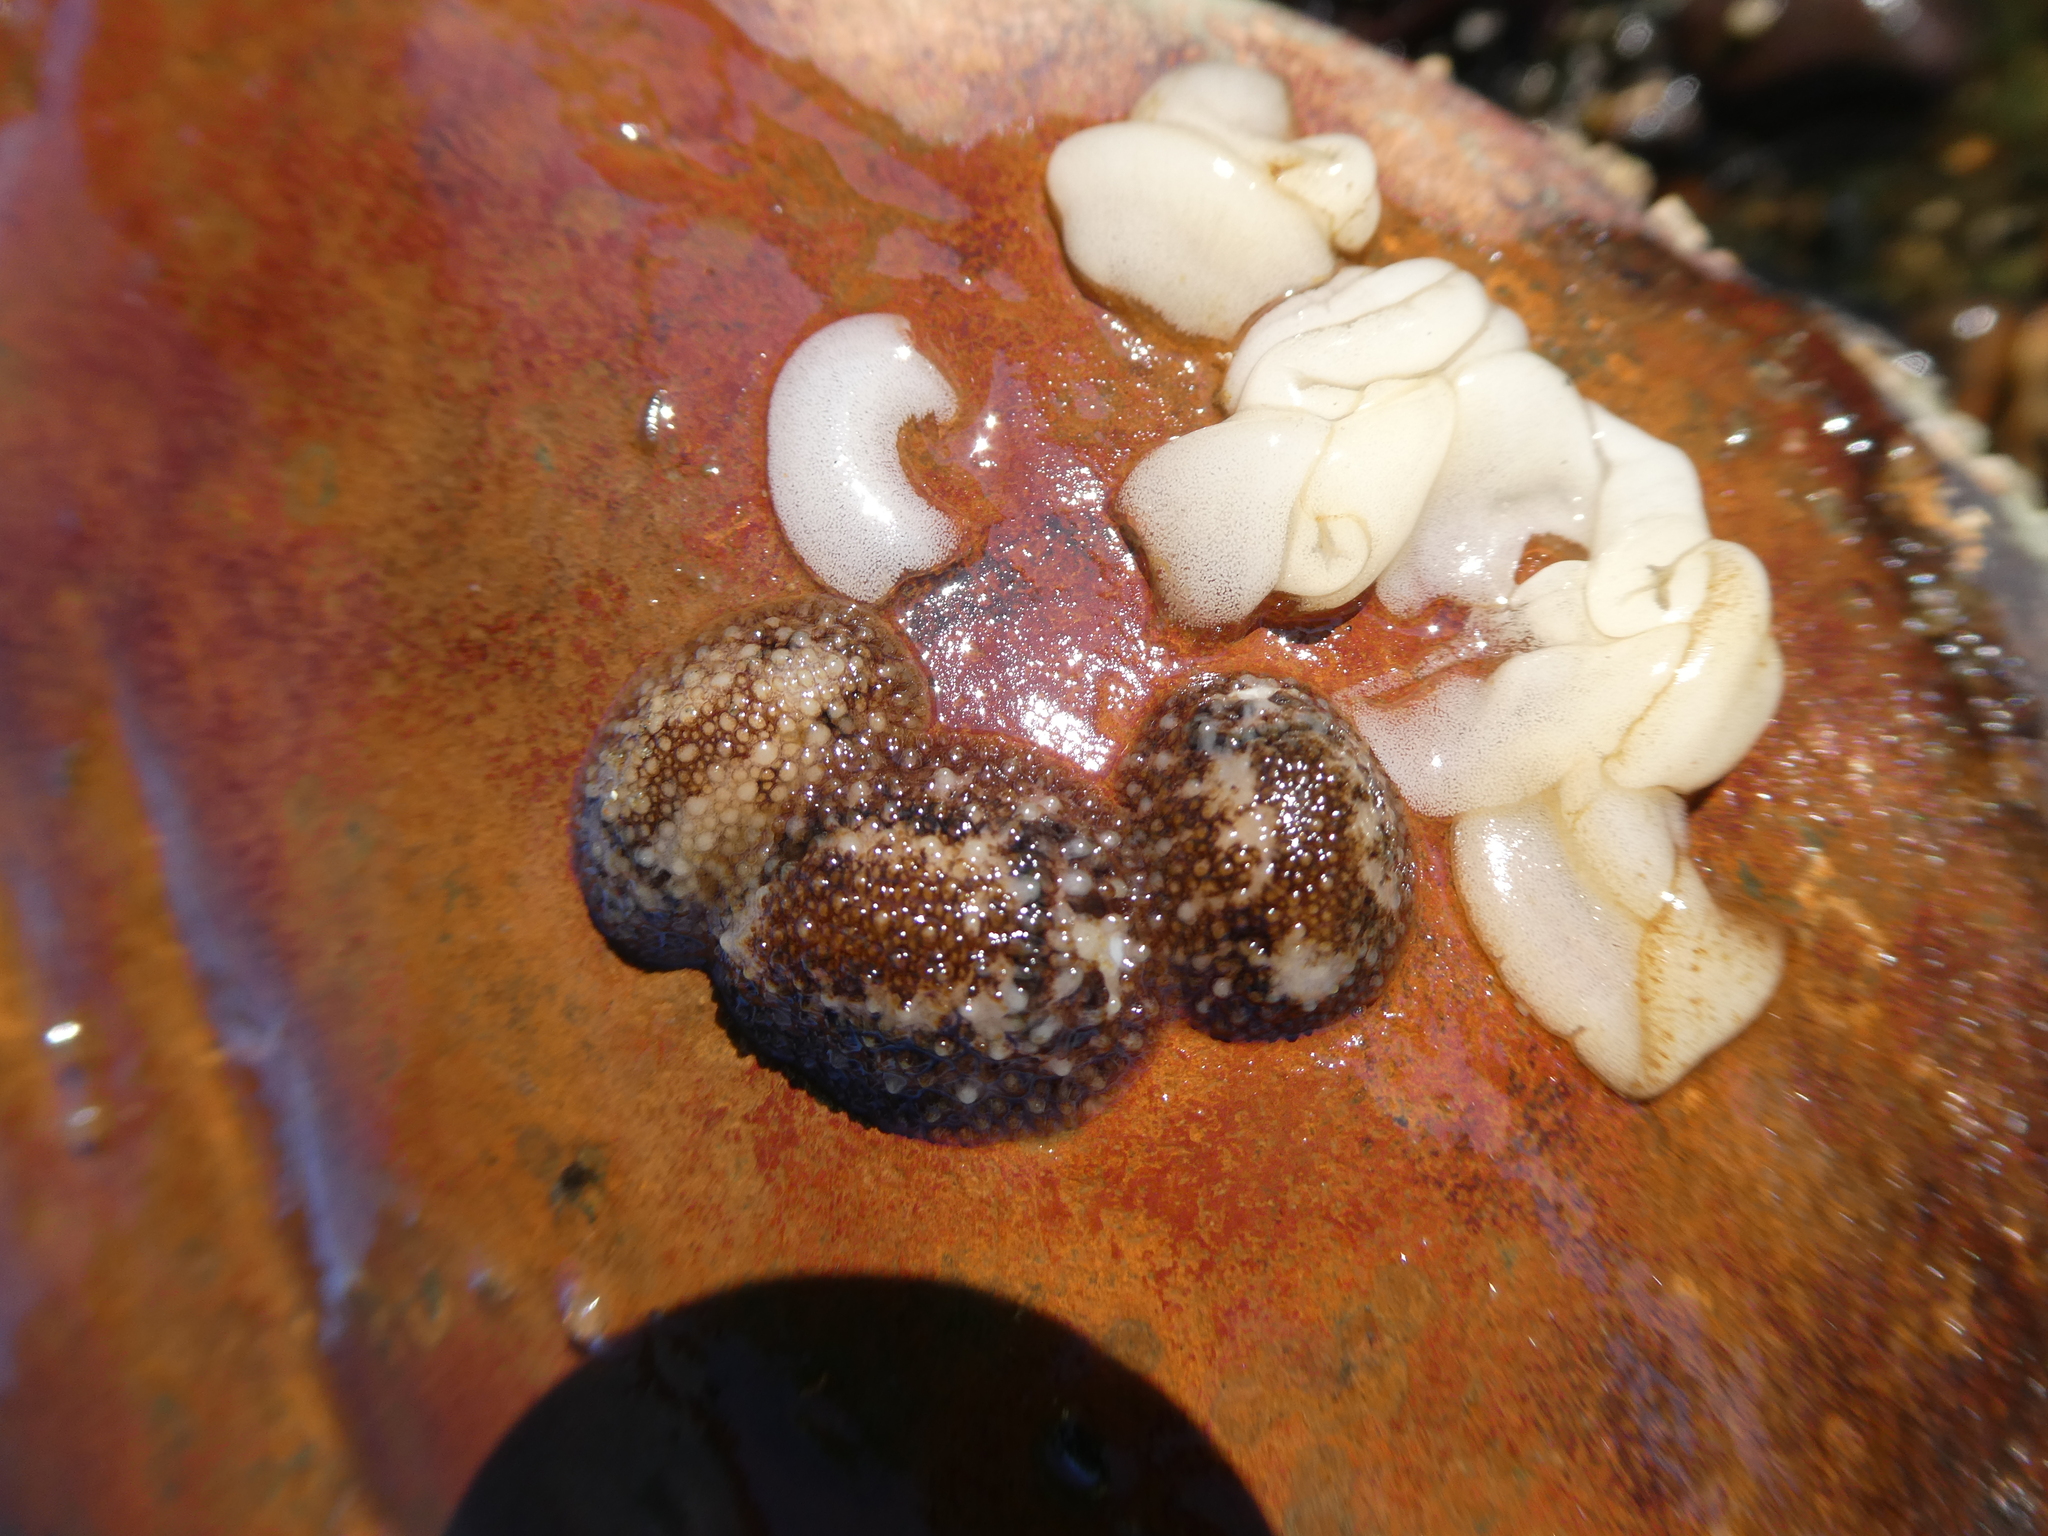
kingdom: Animalia
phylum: Mollusca
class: Gastropoda
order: Nudibranchia
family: Onchidorididae
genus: Onchidoris
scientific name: Onchidoris bilamellata
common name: Barnacle-eating onchidoris
